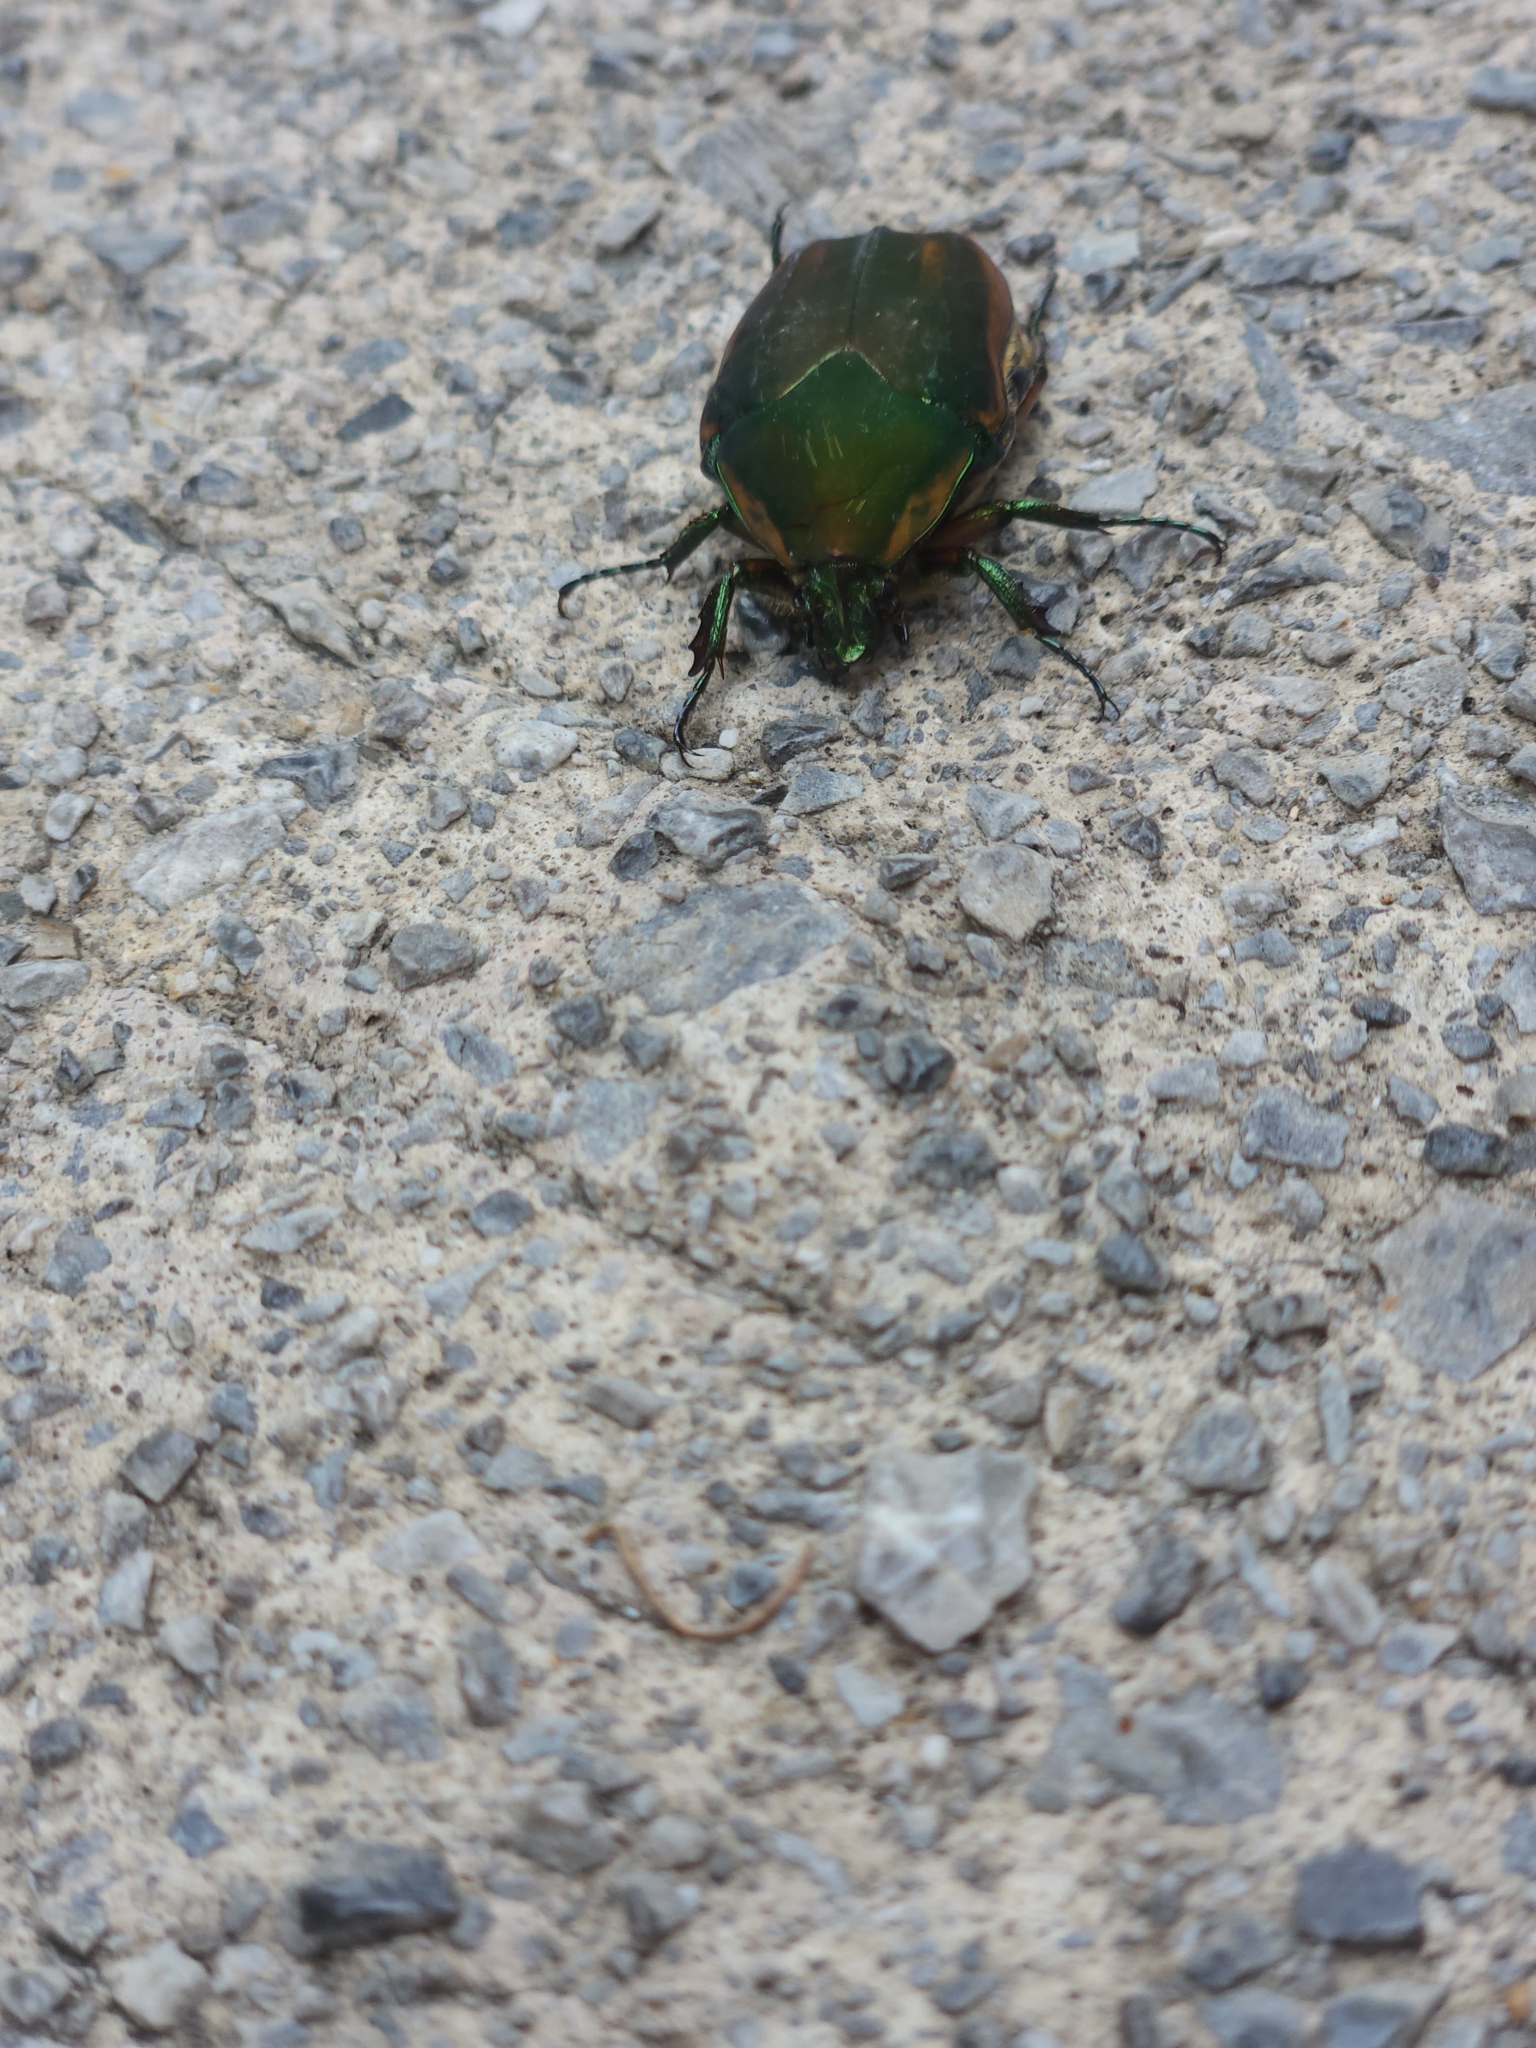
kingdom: Animalia
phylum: Arthropoda
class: Insecta
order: Coleoptera
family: Scarabaeidae
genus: Cotinis
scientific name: Cotinis nitida
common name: Common green june beetle
